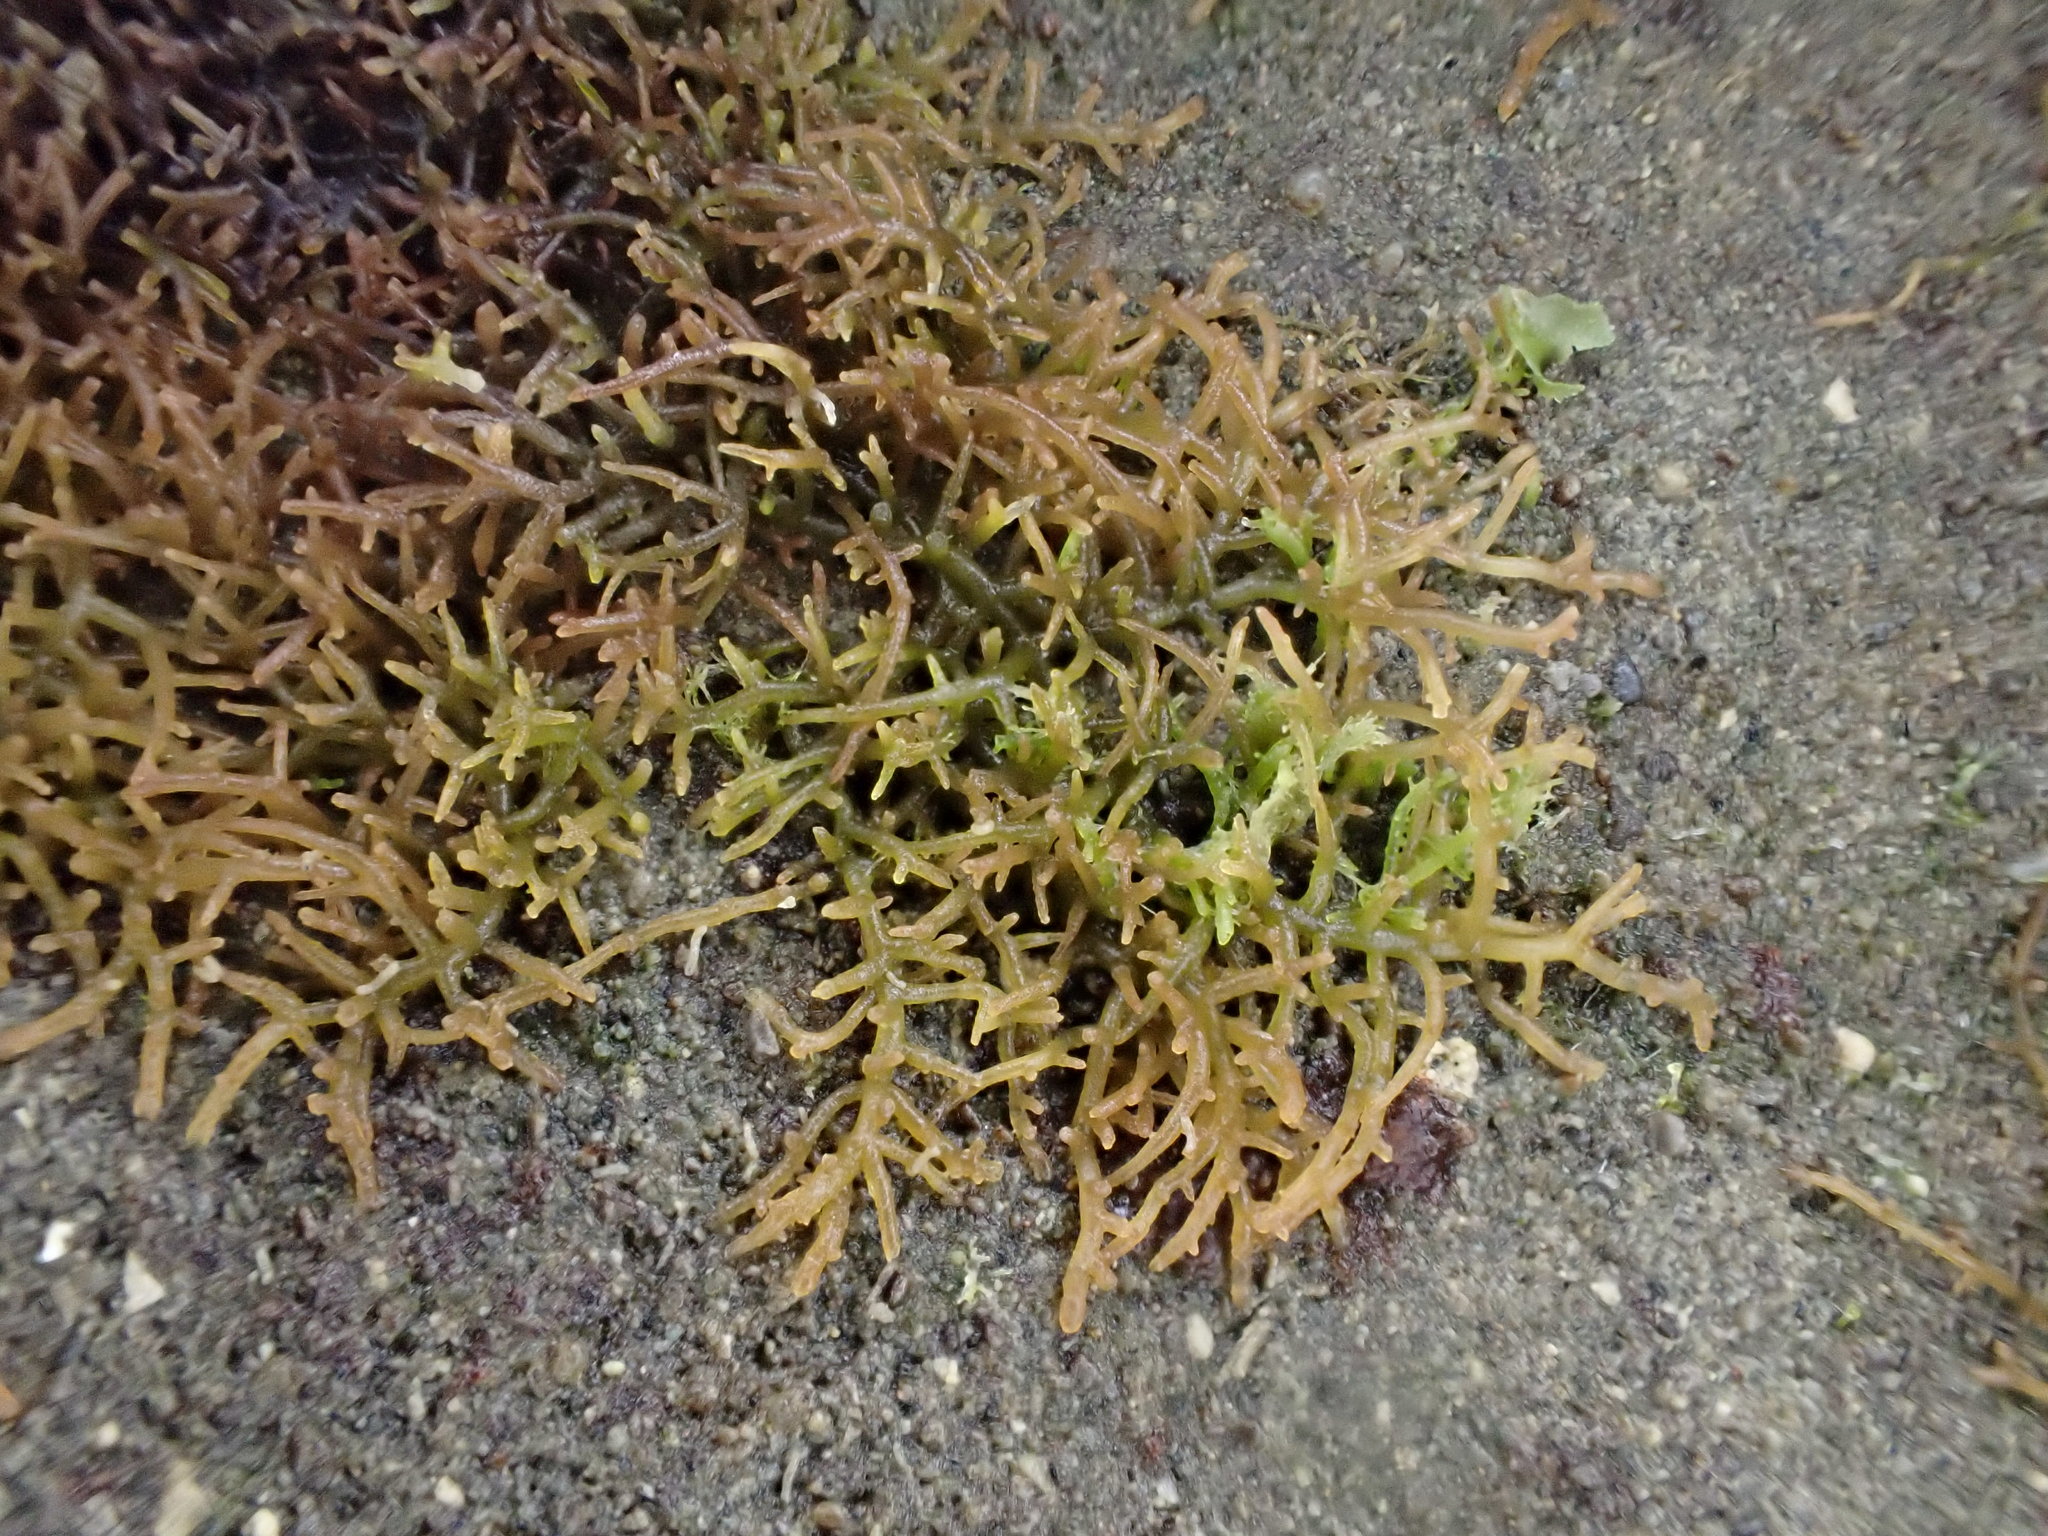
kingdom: Plantae
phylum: Rhodophyta
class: Florideophyceae
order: Gelidiales
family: Gelidiaceae
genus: Capreolia
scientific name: Capreolia implexa
